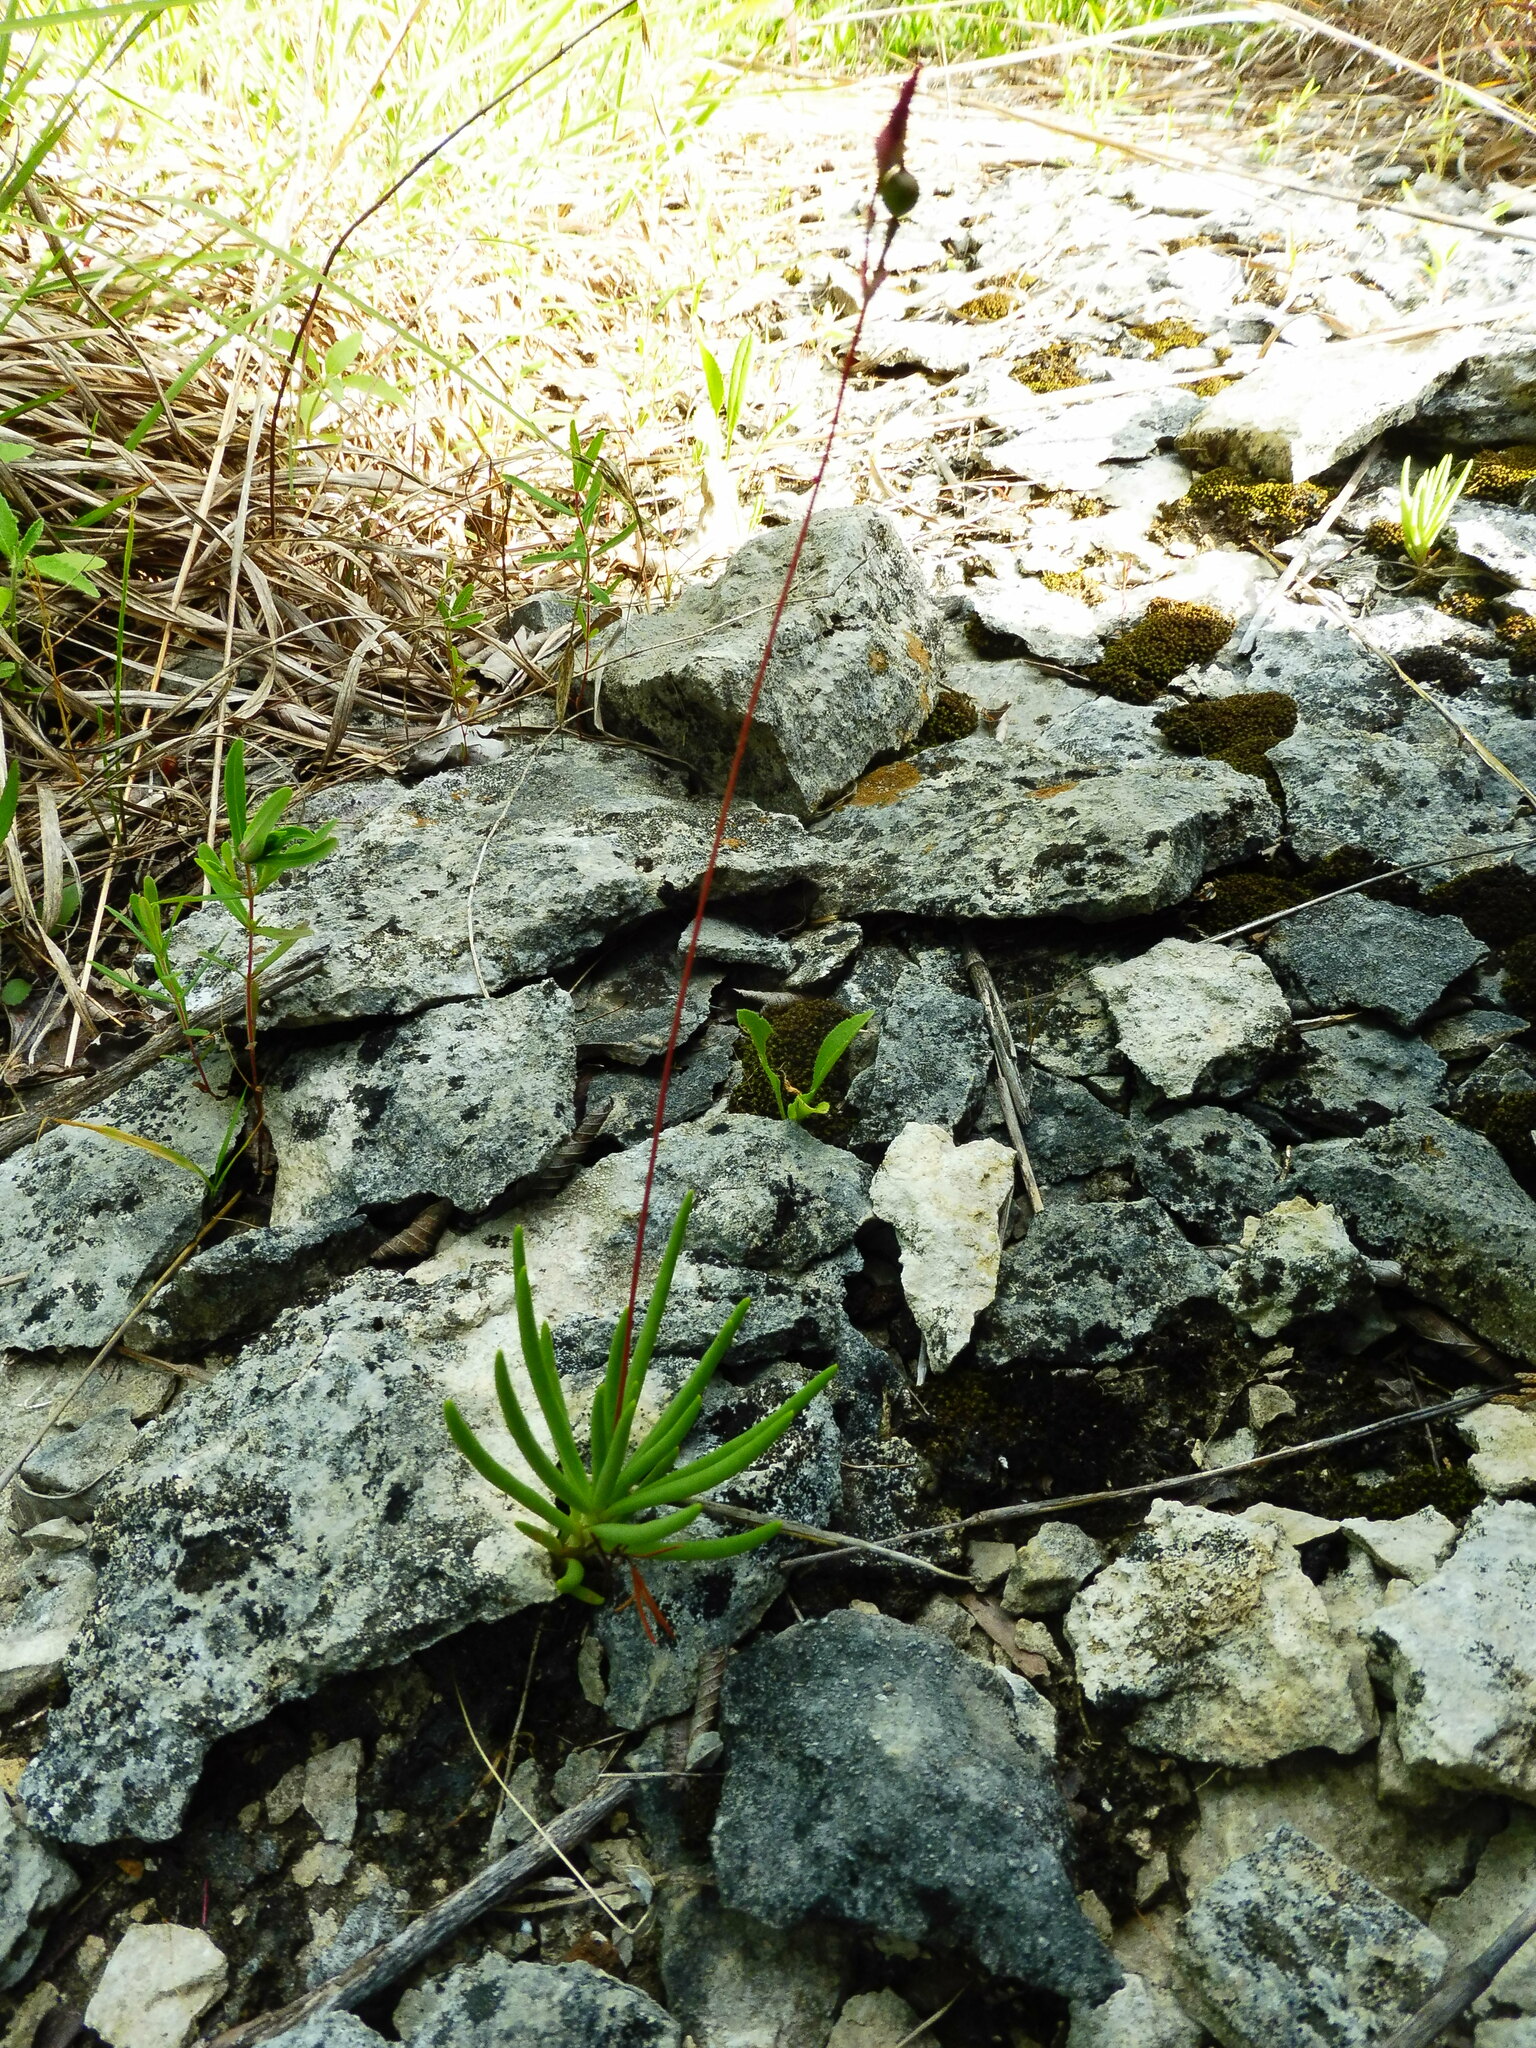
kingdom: Plantae
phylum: Tracheophyta
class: Magnoliopsida
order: Caryophyllales
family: Montiaceae
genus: Phemeranthus
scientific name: Phemeranthus calcaricus
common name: Limestone fameflower
